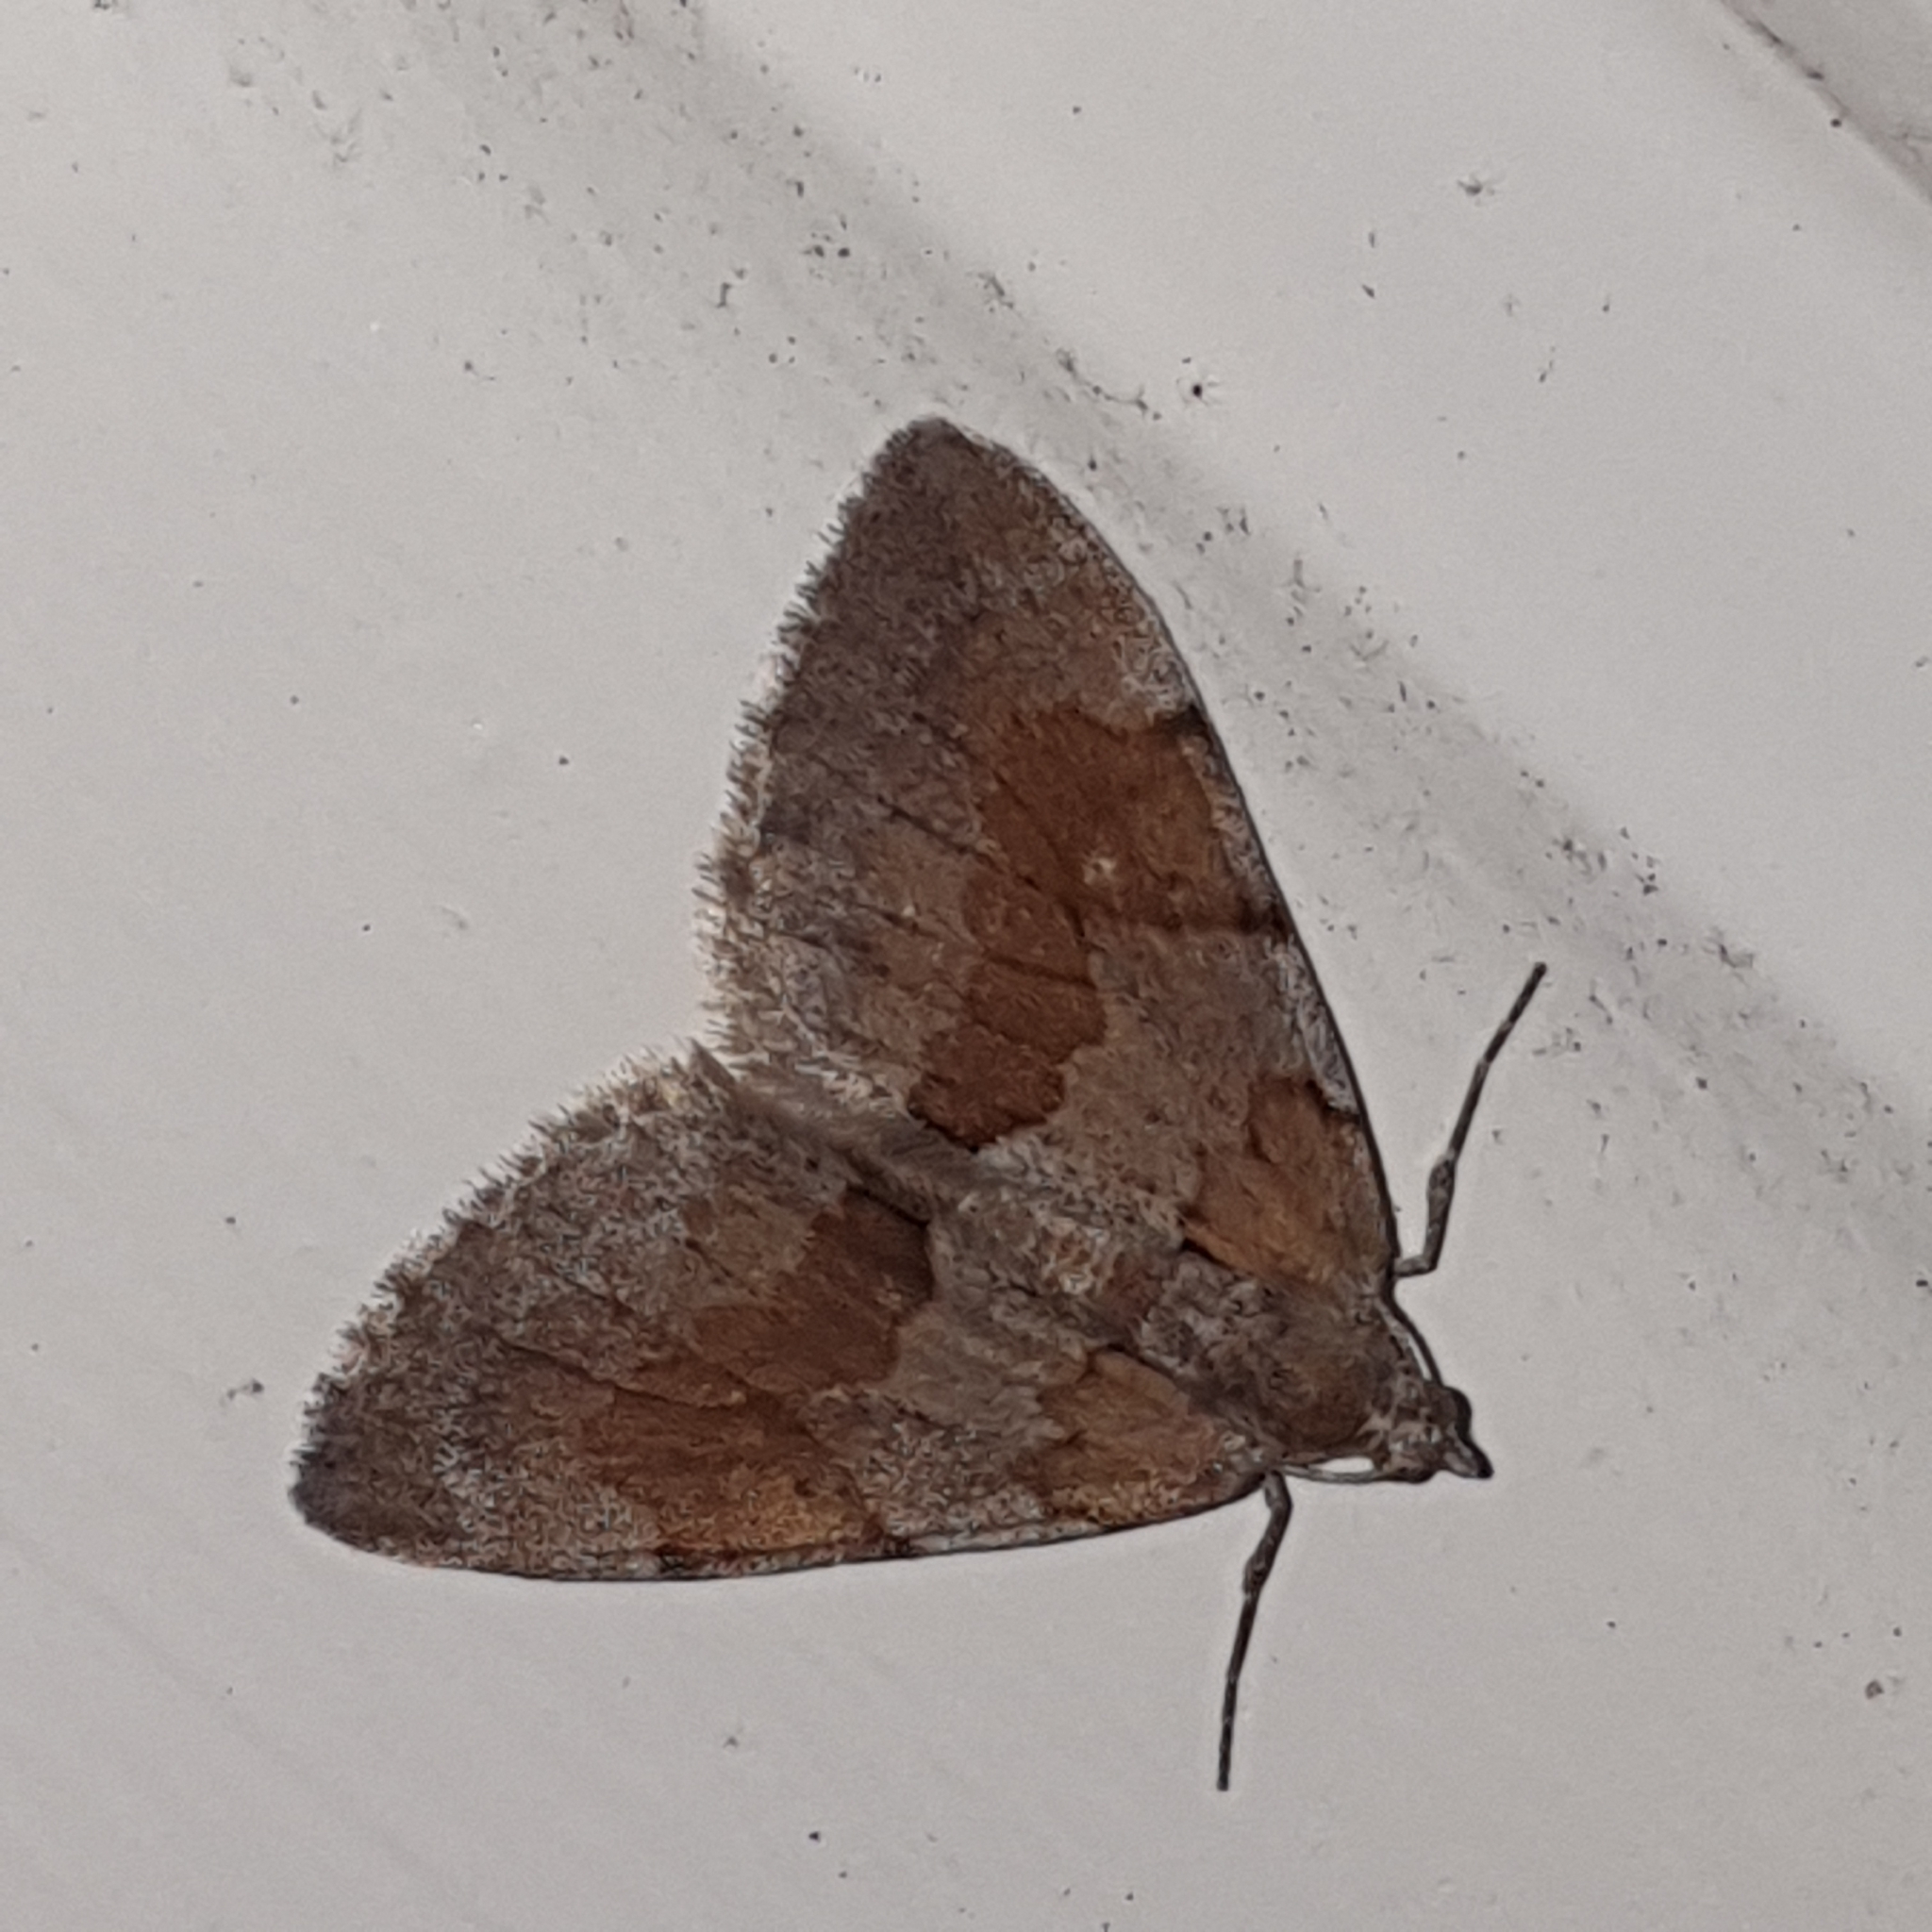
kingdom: Animalia
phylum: Arthropoda
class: Insecta
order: Lepidoptera
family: Geometridae
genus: Pennithera
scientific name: Pennithera firmata
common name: Pine carpet
